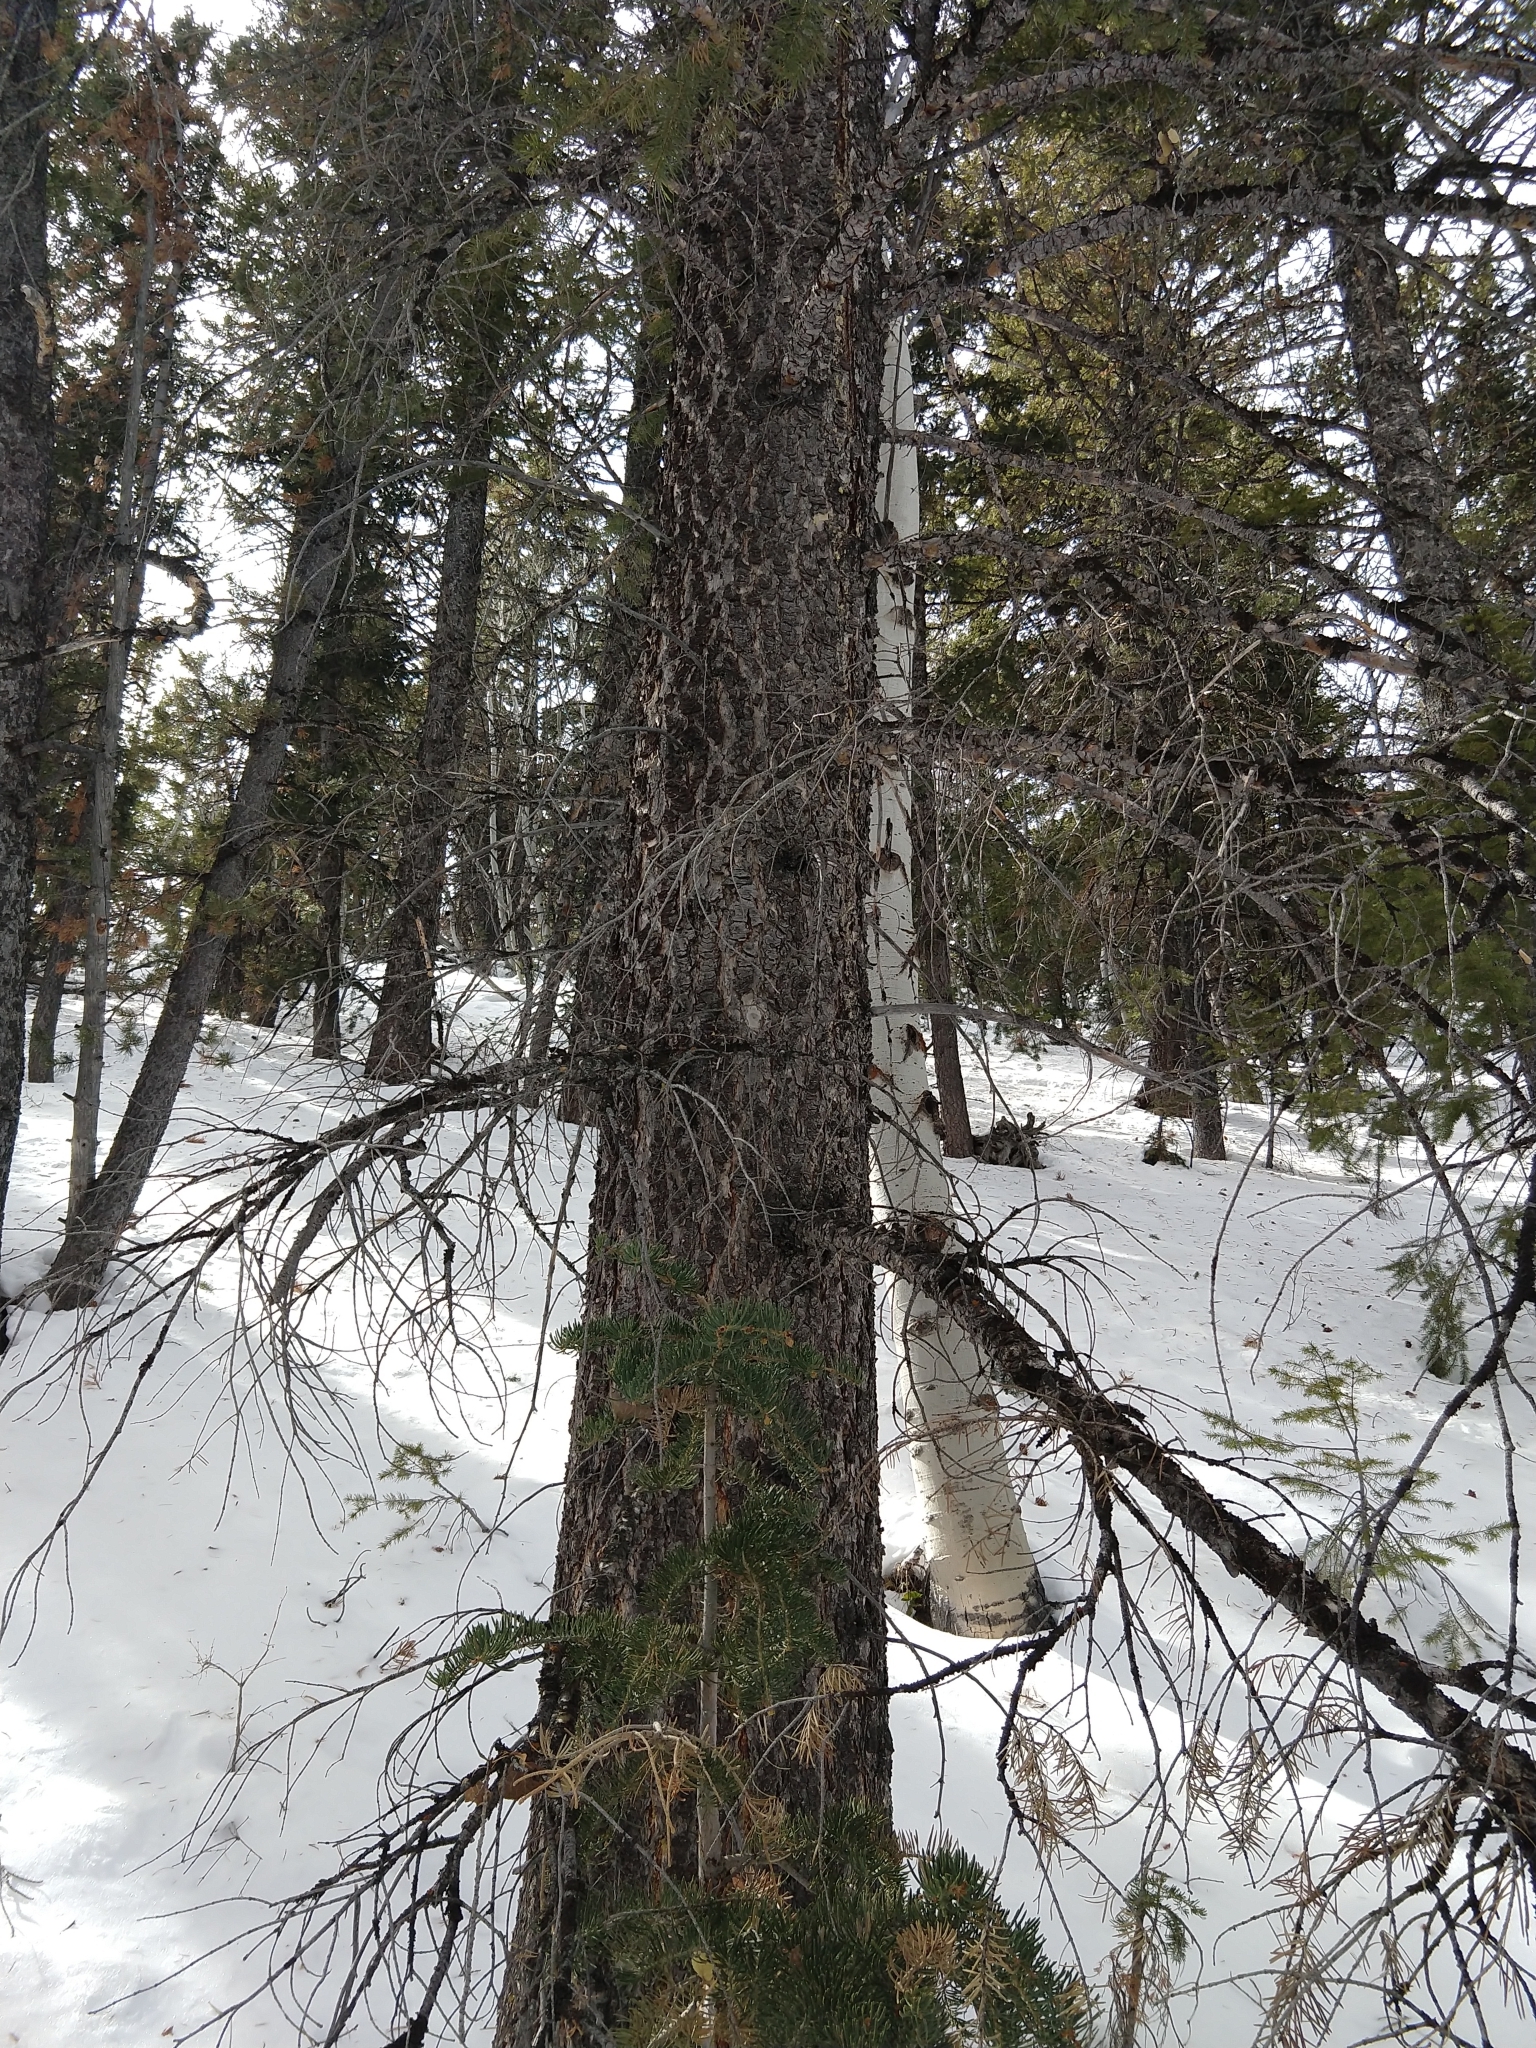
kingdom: Plantae
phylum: Tracheophyta
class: Pinopsida
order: Pinales
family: Pinaceae
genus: Pseudotsuga
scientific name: Pseudotsuga menziesii
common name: Douglas fir
